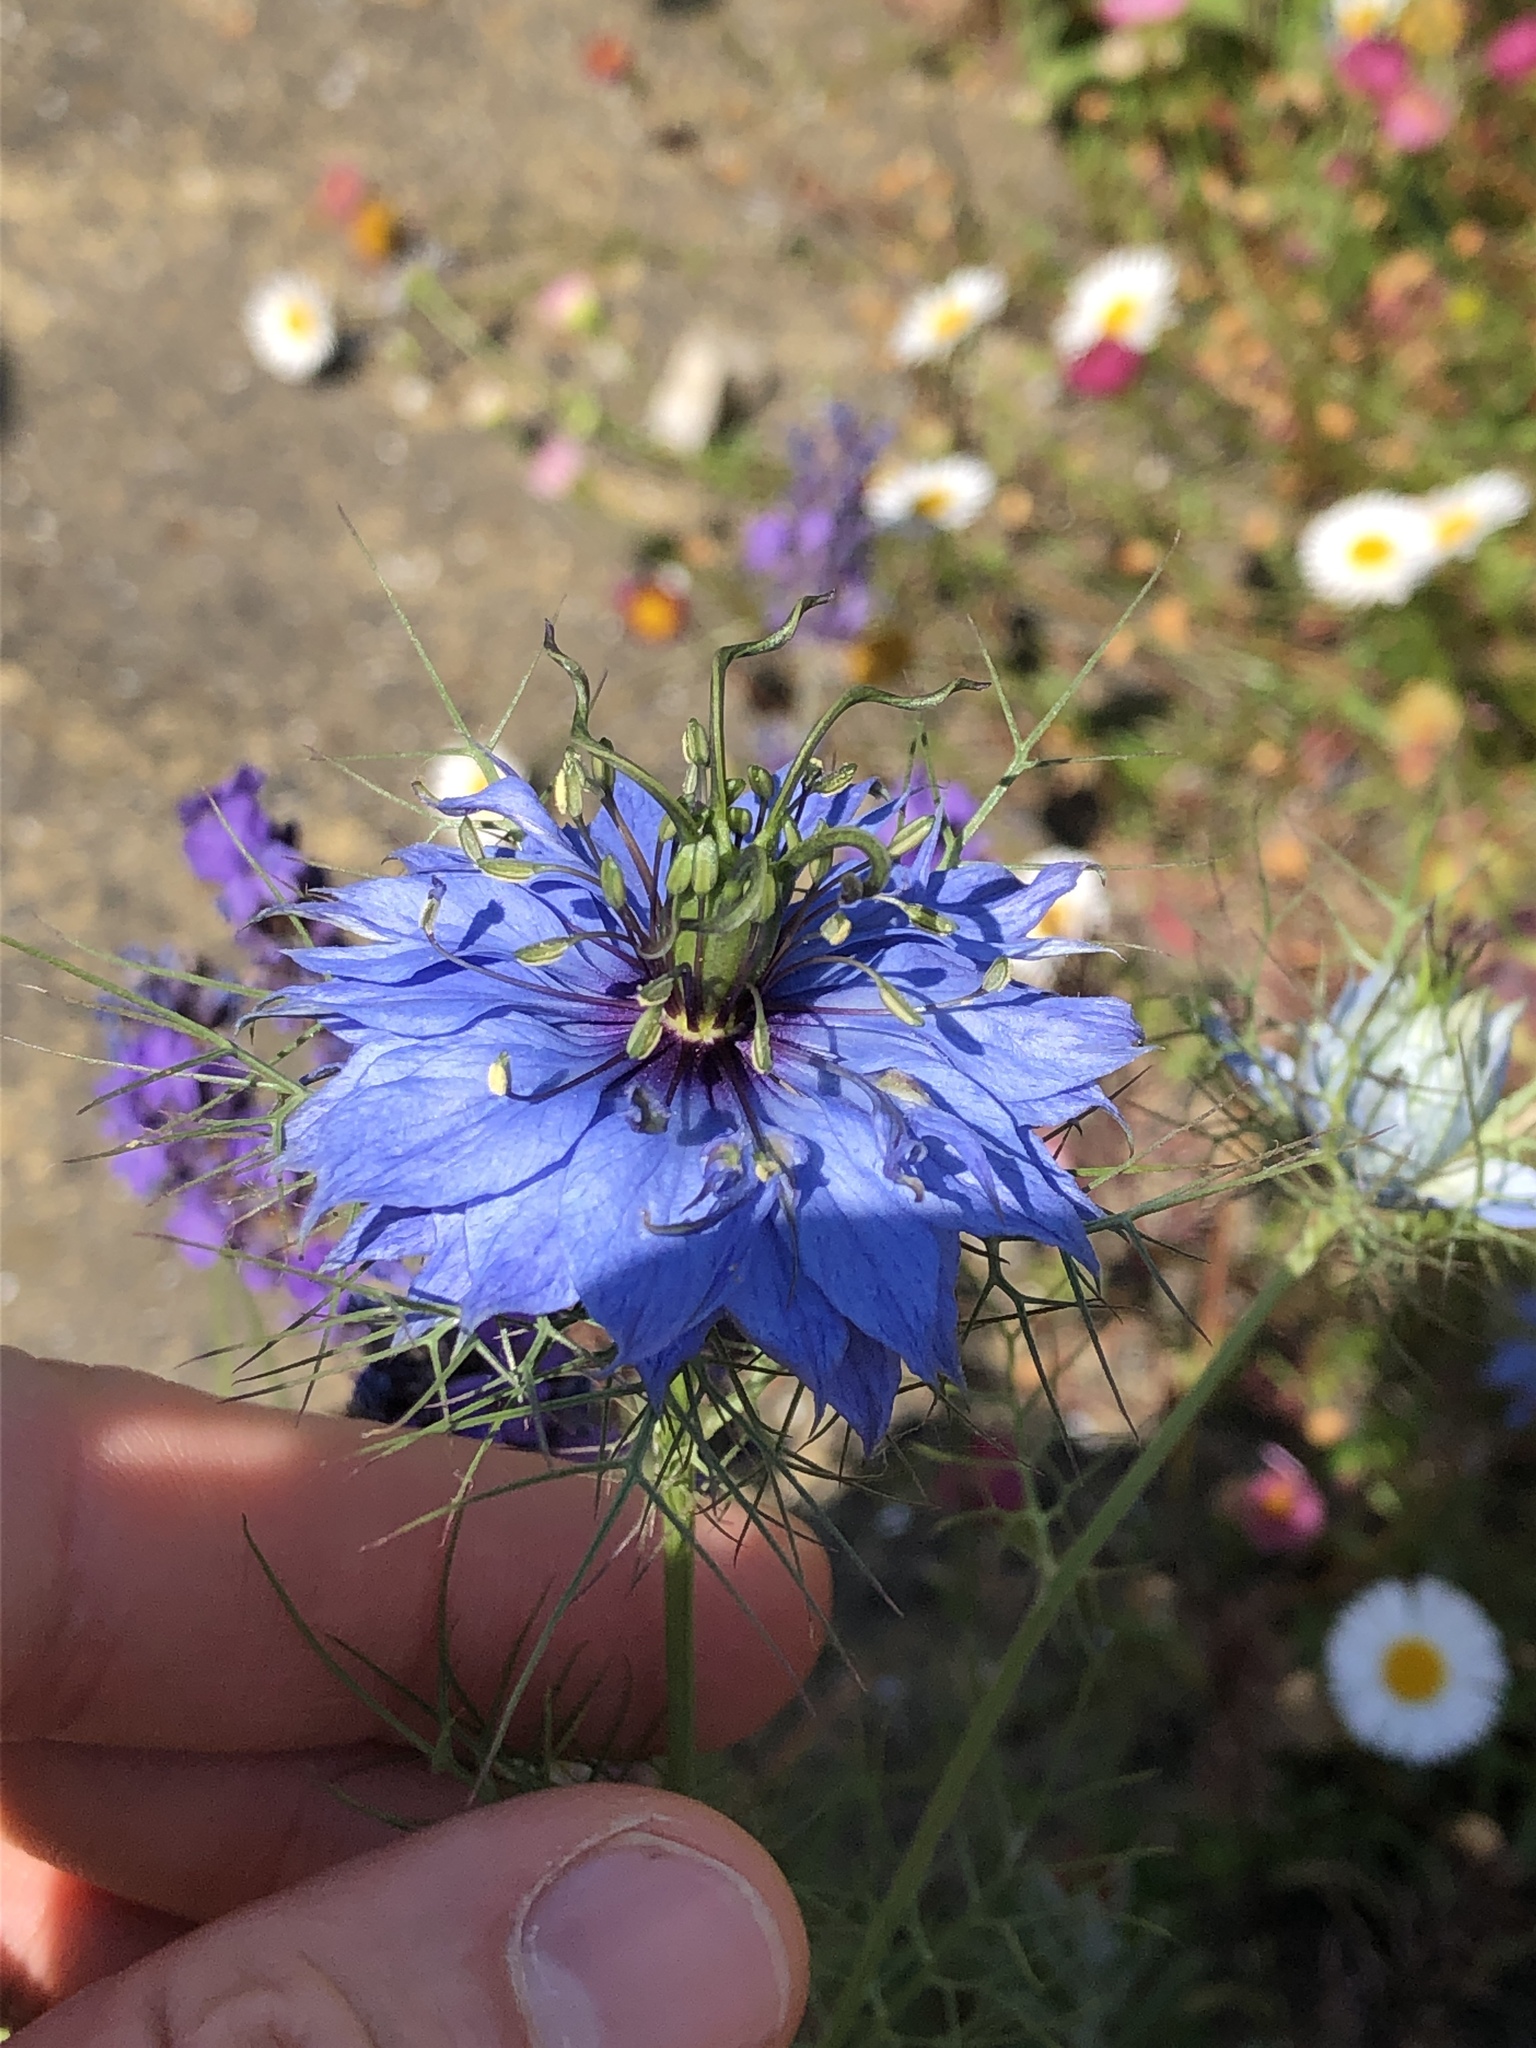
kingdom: Plantae
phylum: Tracheophyta
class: Magnoliopsida
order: Ranunculales
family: Ranunculaceae
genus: Nigella
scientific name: Nigella damascena
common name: Love-in-a-mist
